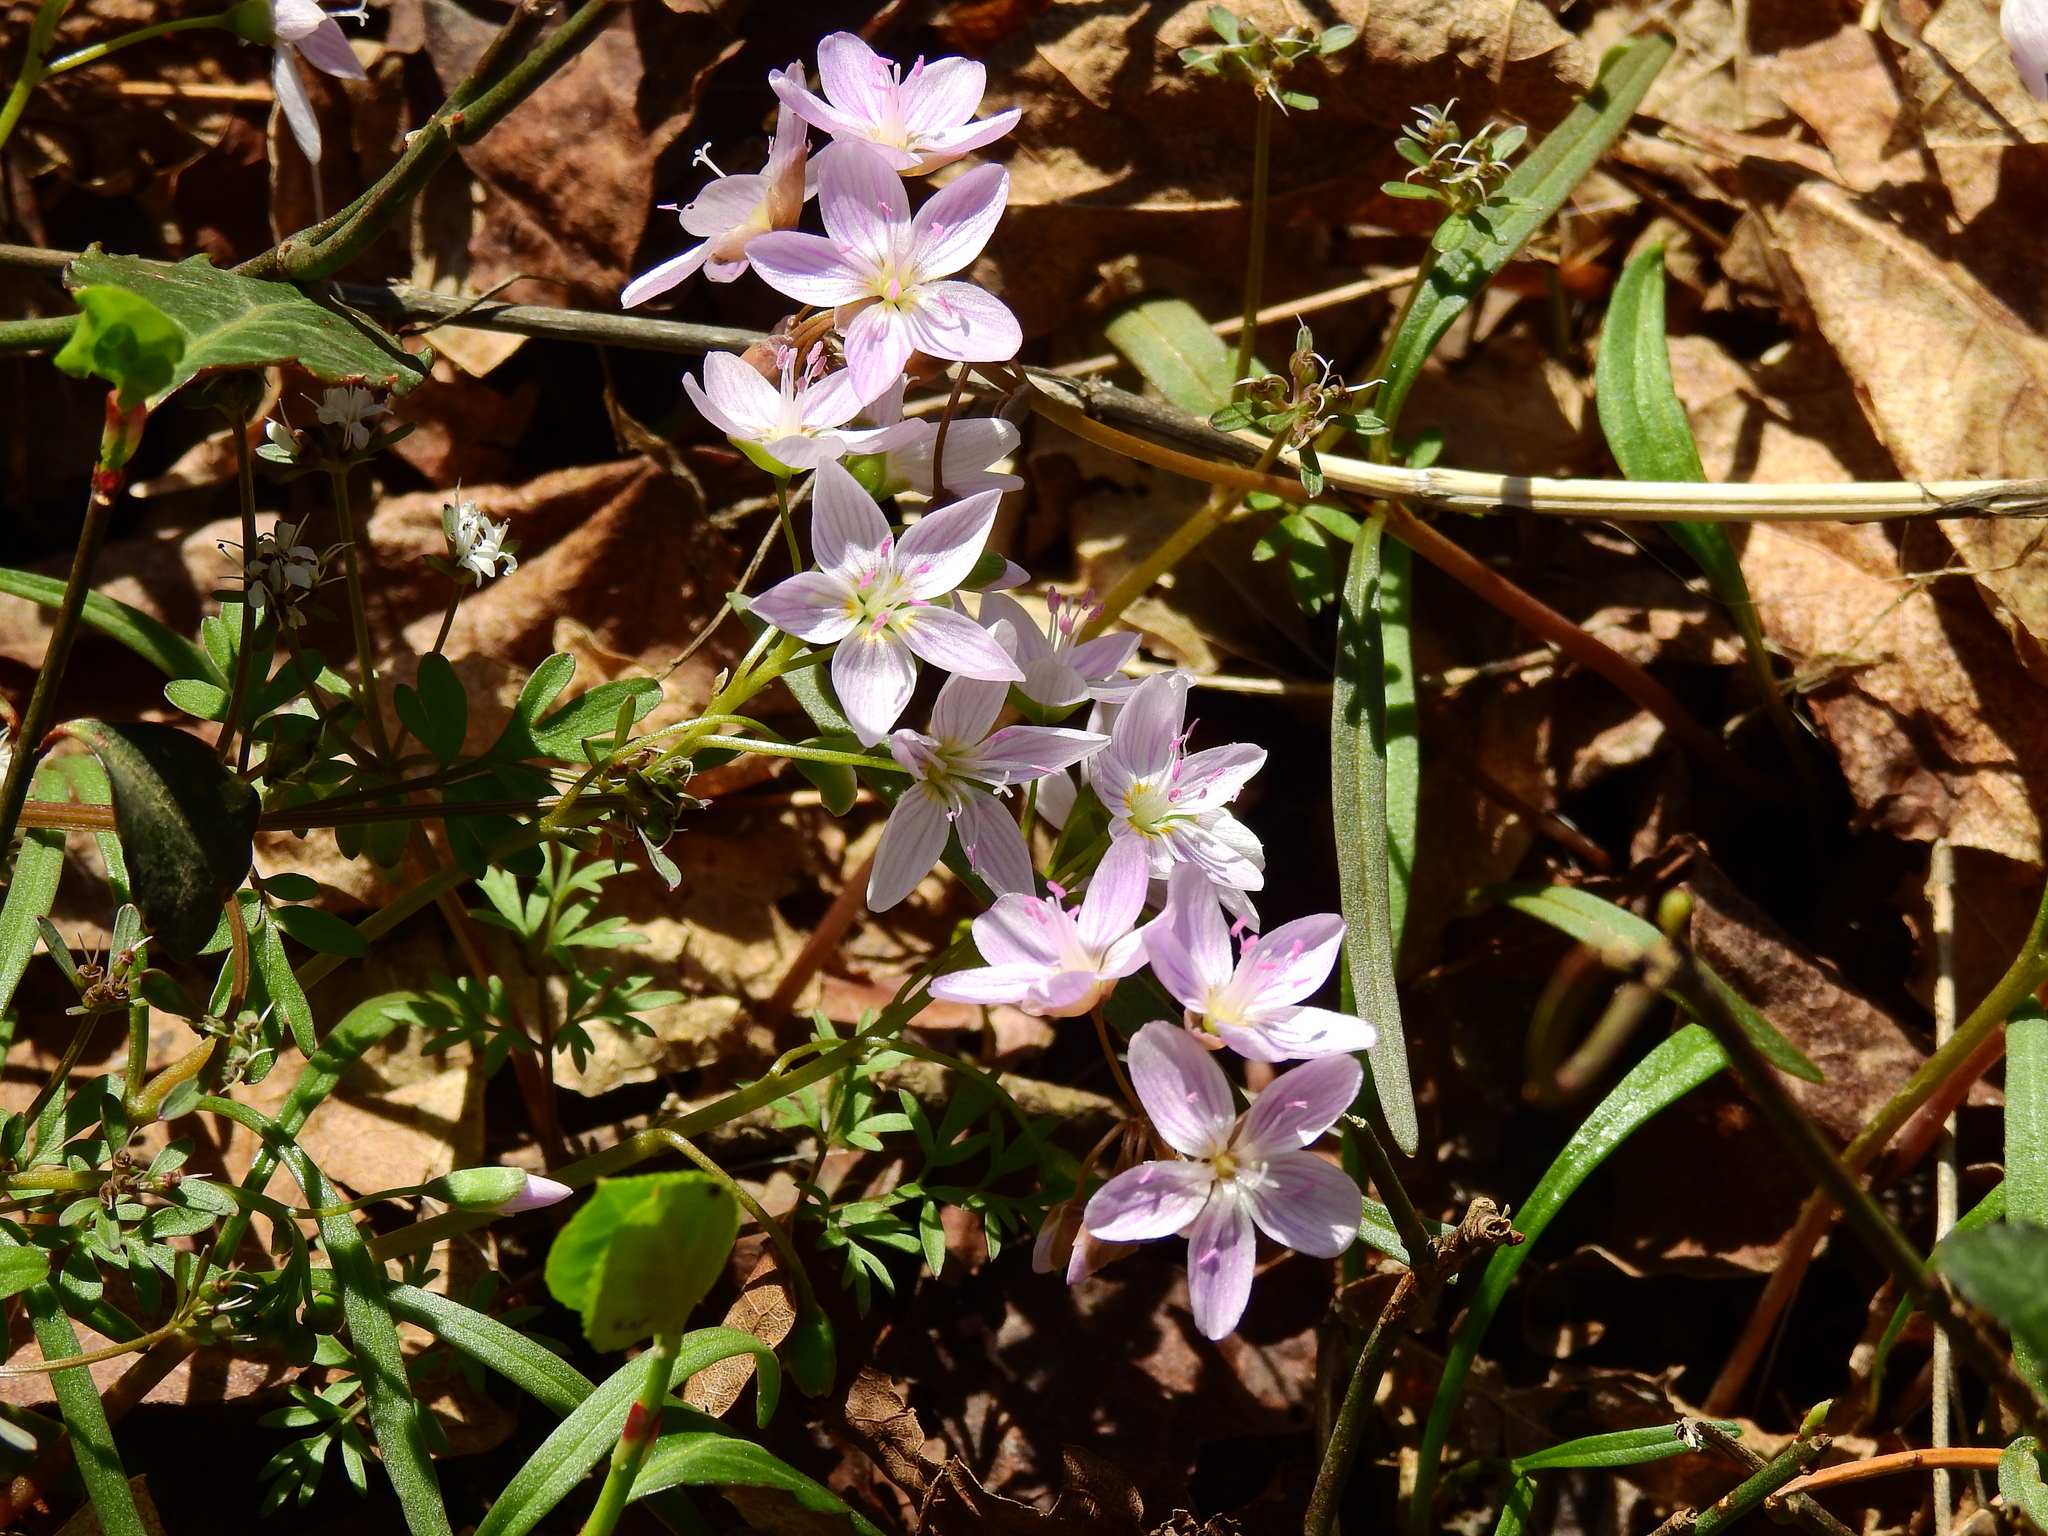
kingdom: Plantae
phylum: Tracheophyta
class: Magnoliopsida
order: Caryophyllales
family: Montiaceae
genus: Claytonia
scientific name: Claytonia virginica
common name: Virginia springbeauty
